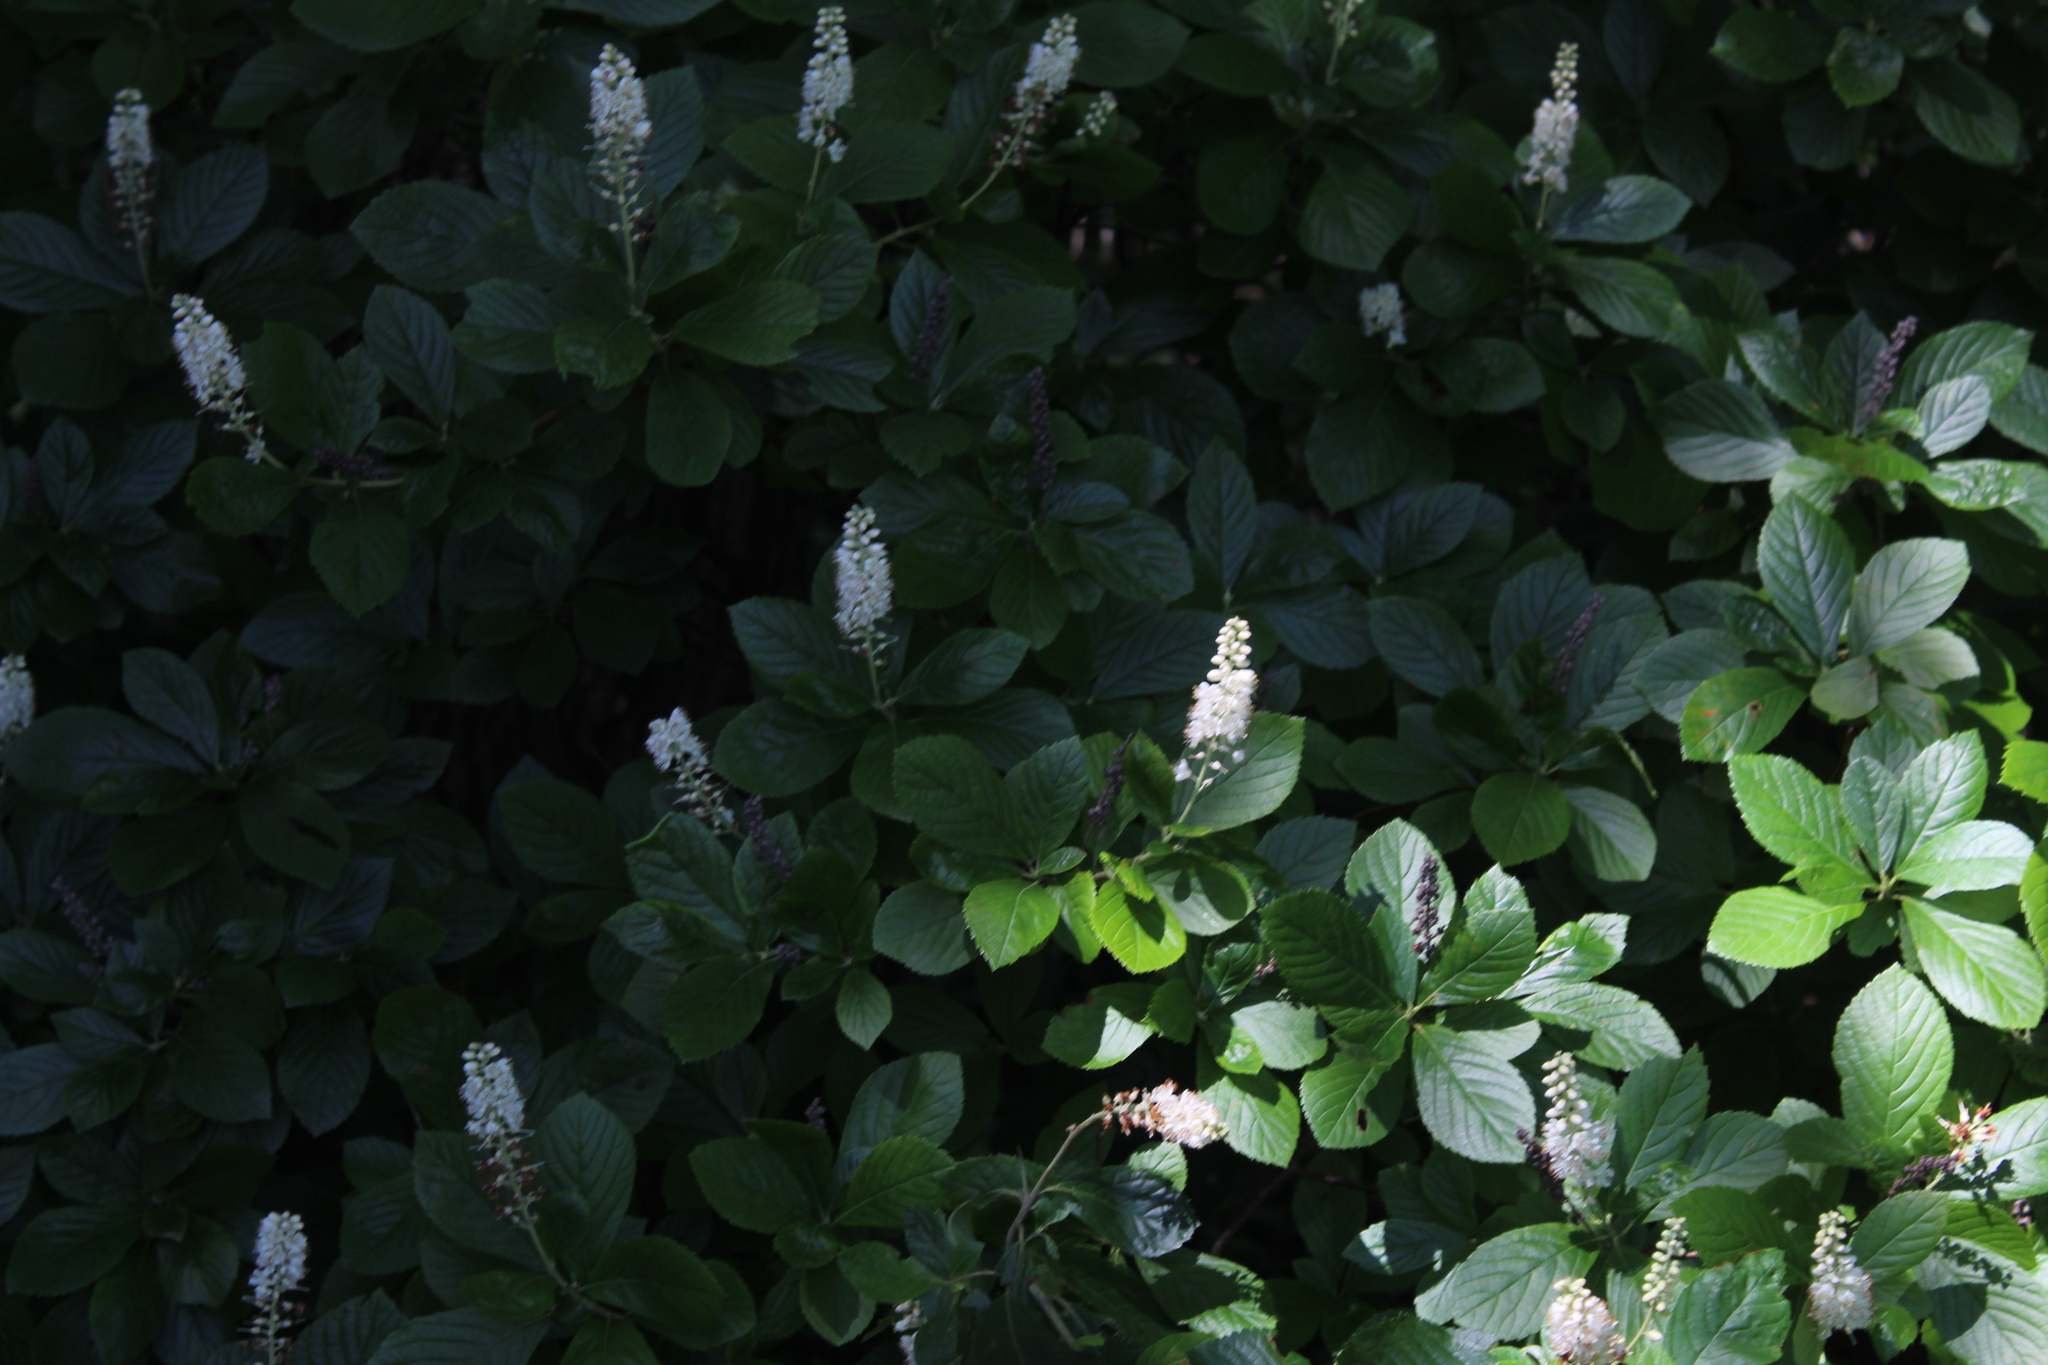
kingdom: Plantae
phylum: Tracheophyta
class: Magnoliopsida
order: Ericales
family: Clethraceae
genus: Clethra
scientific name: Clethra alnifolia
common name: Sweet pepperbush
